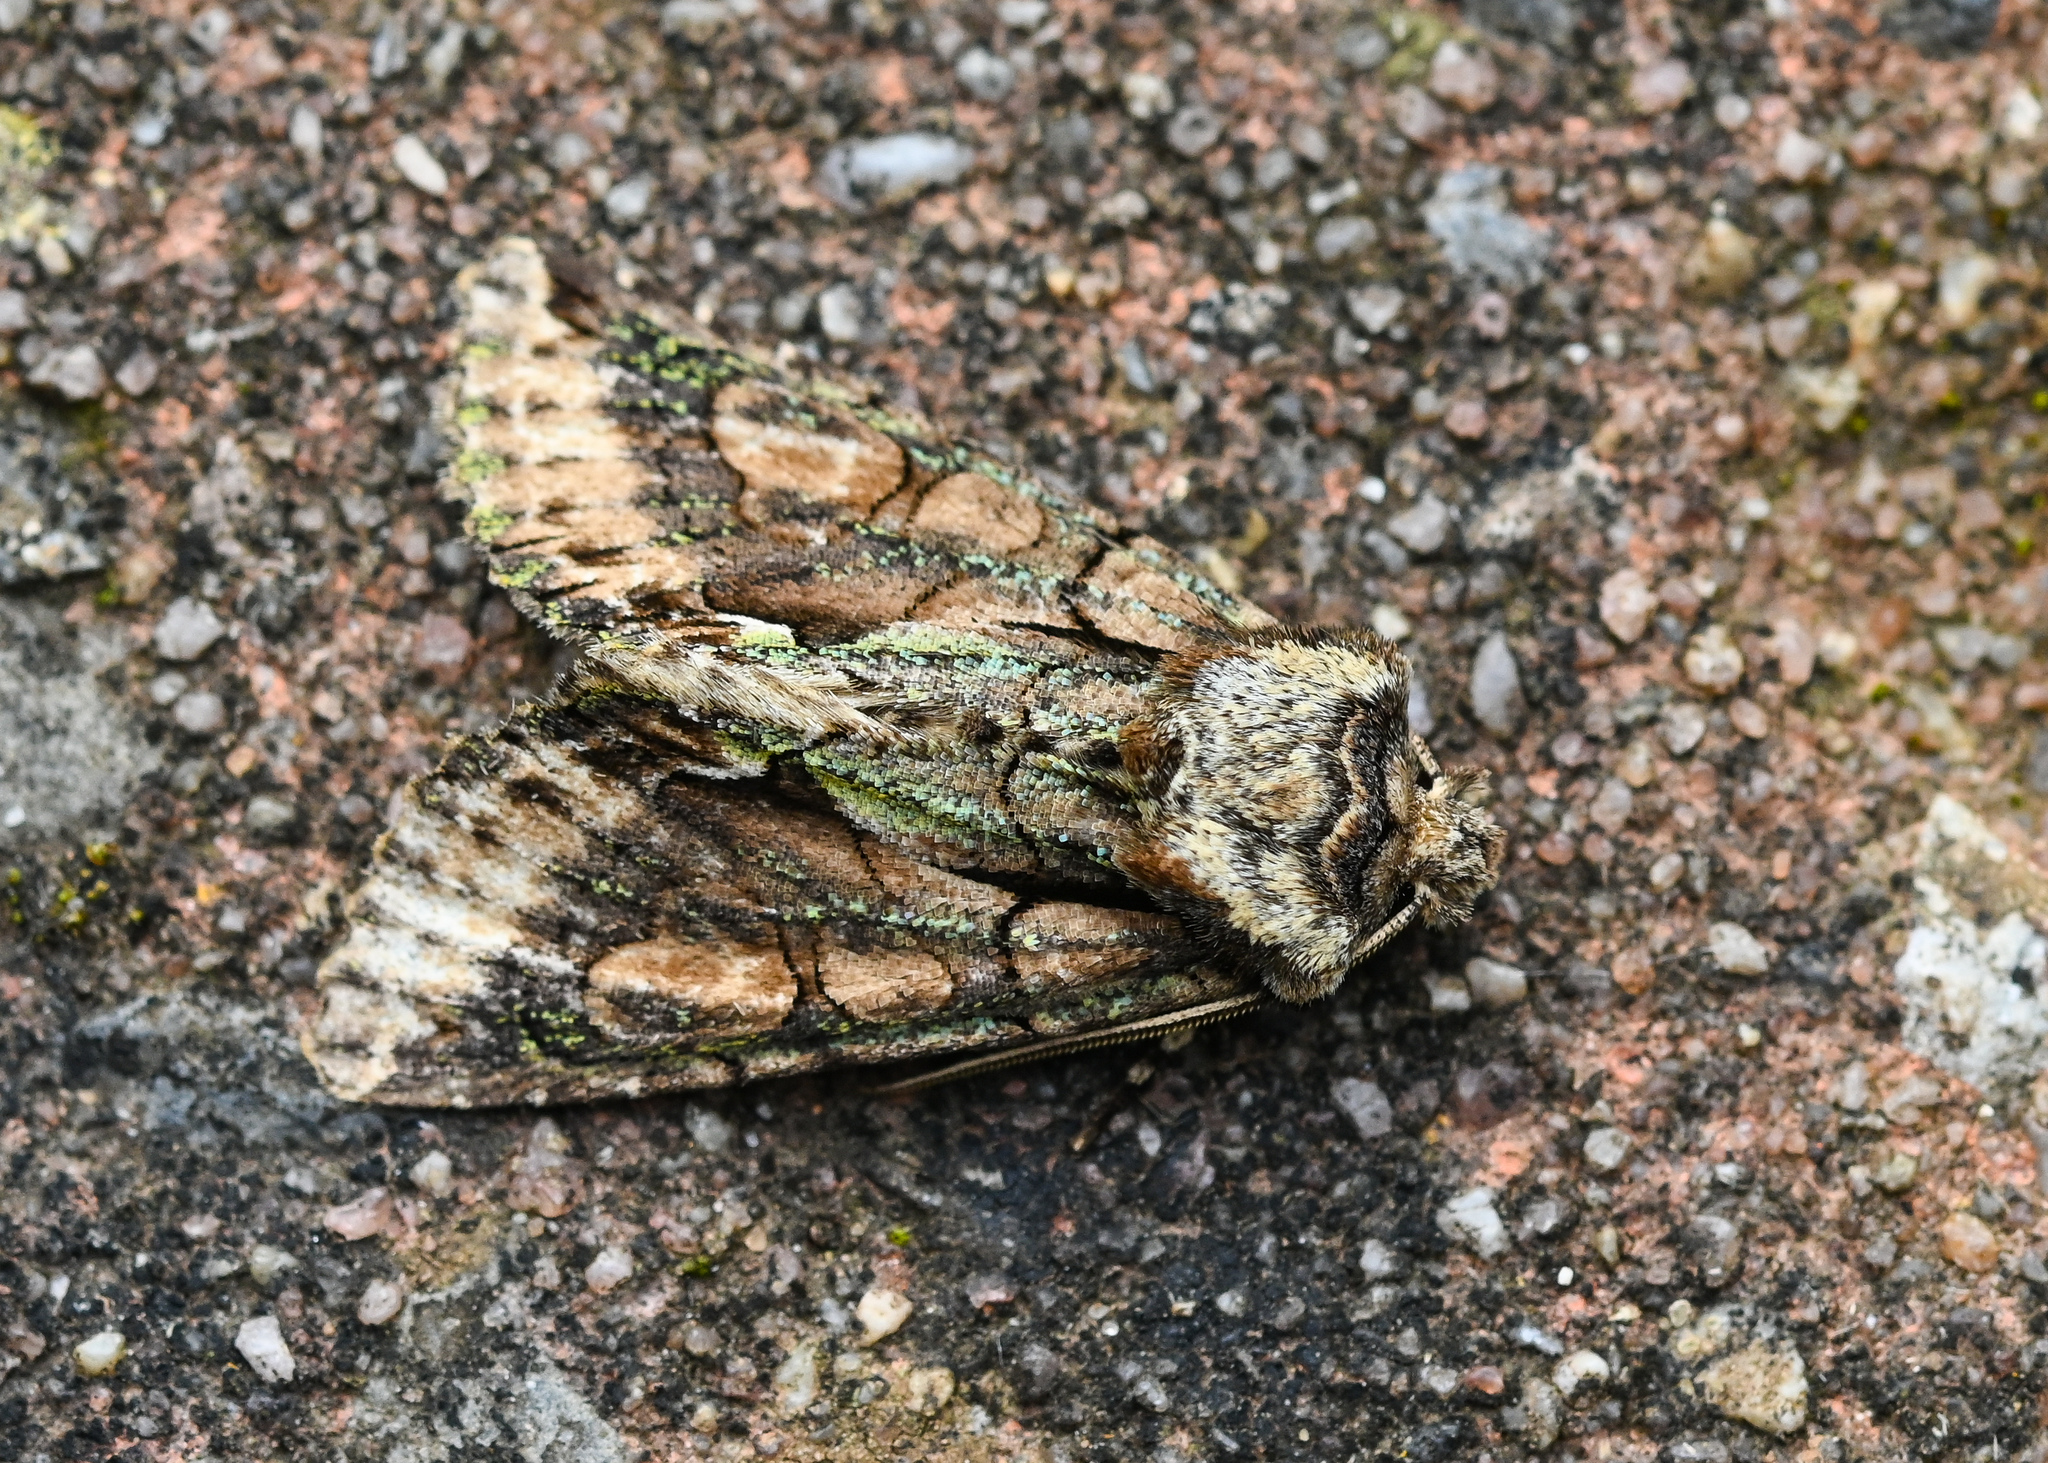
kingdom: Animalia
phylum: Arthropoda
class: Insecta
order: Lepidoptera
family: Noctuidae
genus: Allophyes
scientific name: Allophyes oxyacanthae
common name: Green-brindled crescent
